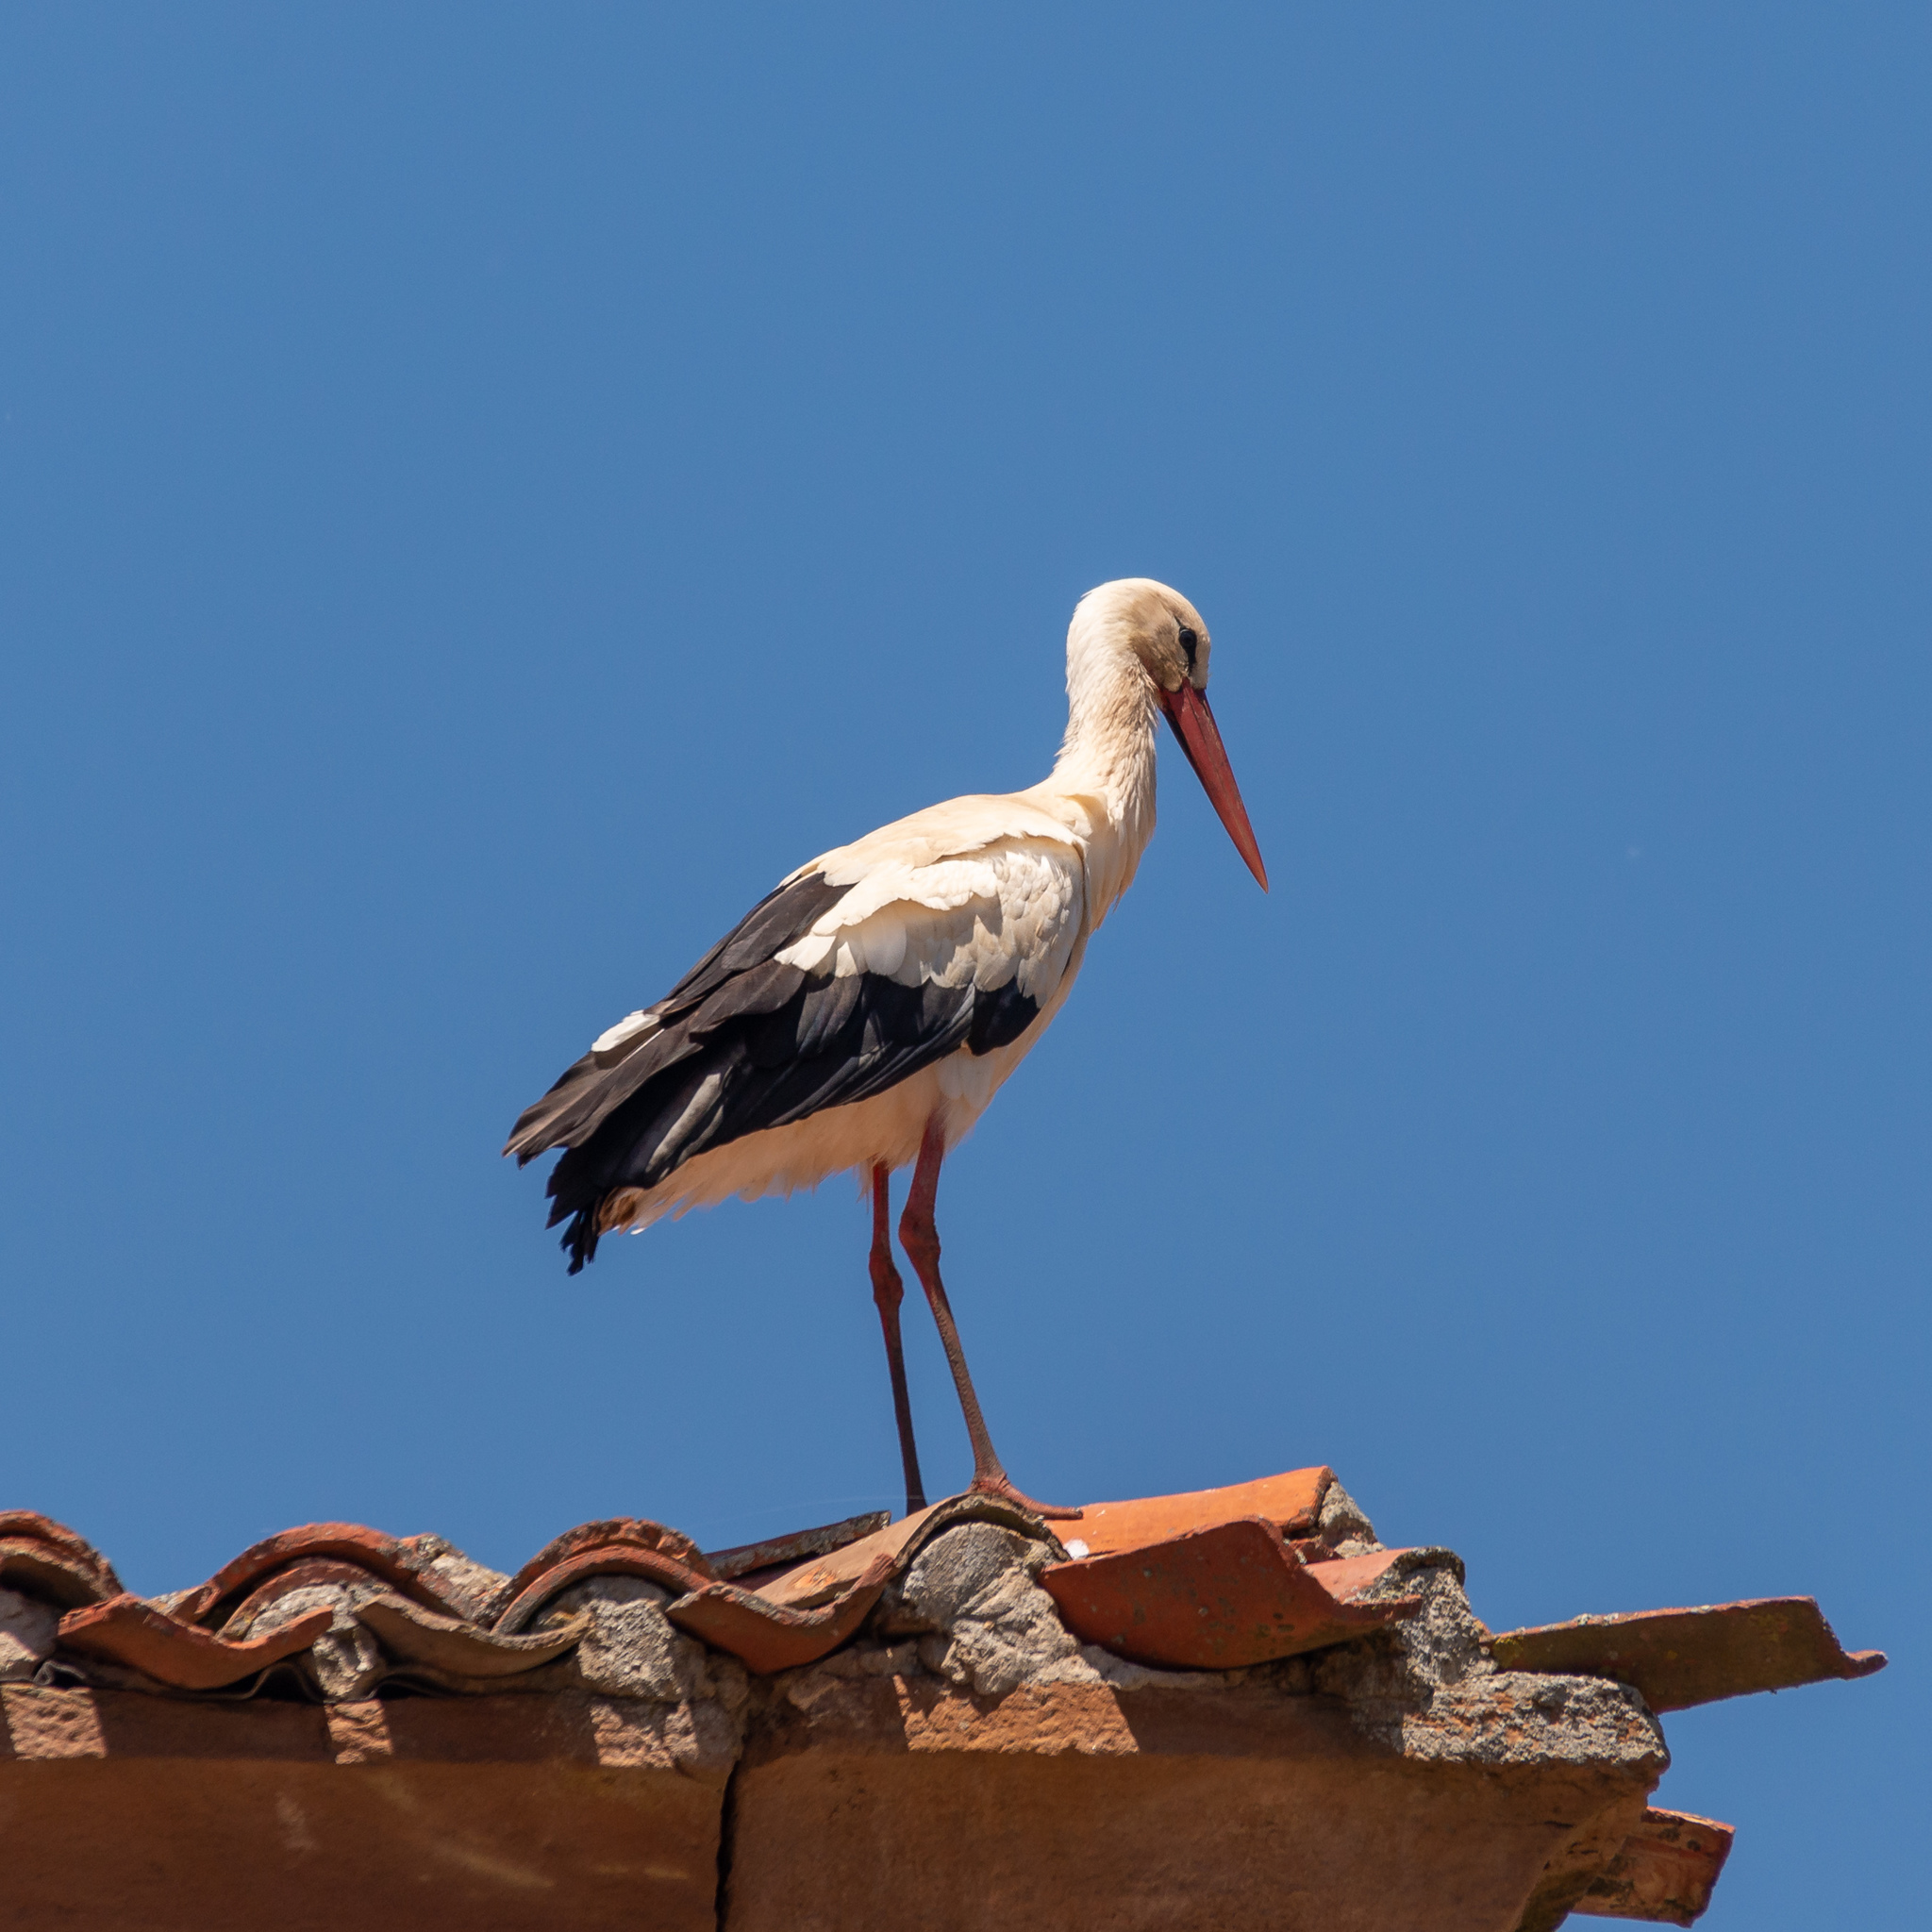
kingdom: Animalia
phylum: Chordata
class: Aves
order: Ciconiiformes
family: Ciconiidae
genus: Ciconia
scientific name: Ciconia ciconia
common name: White stork
